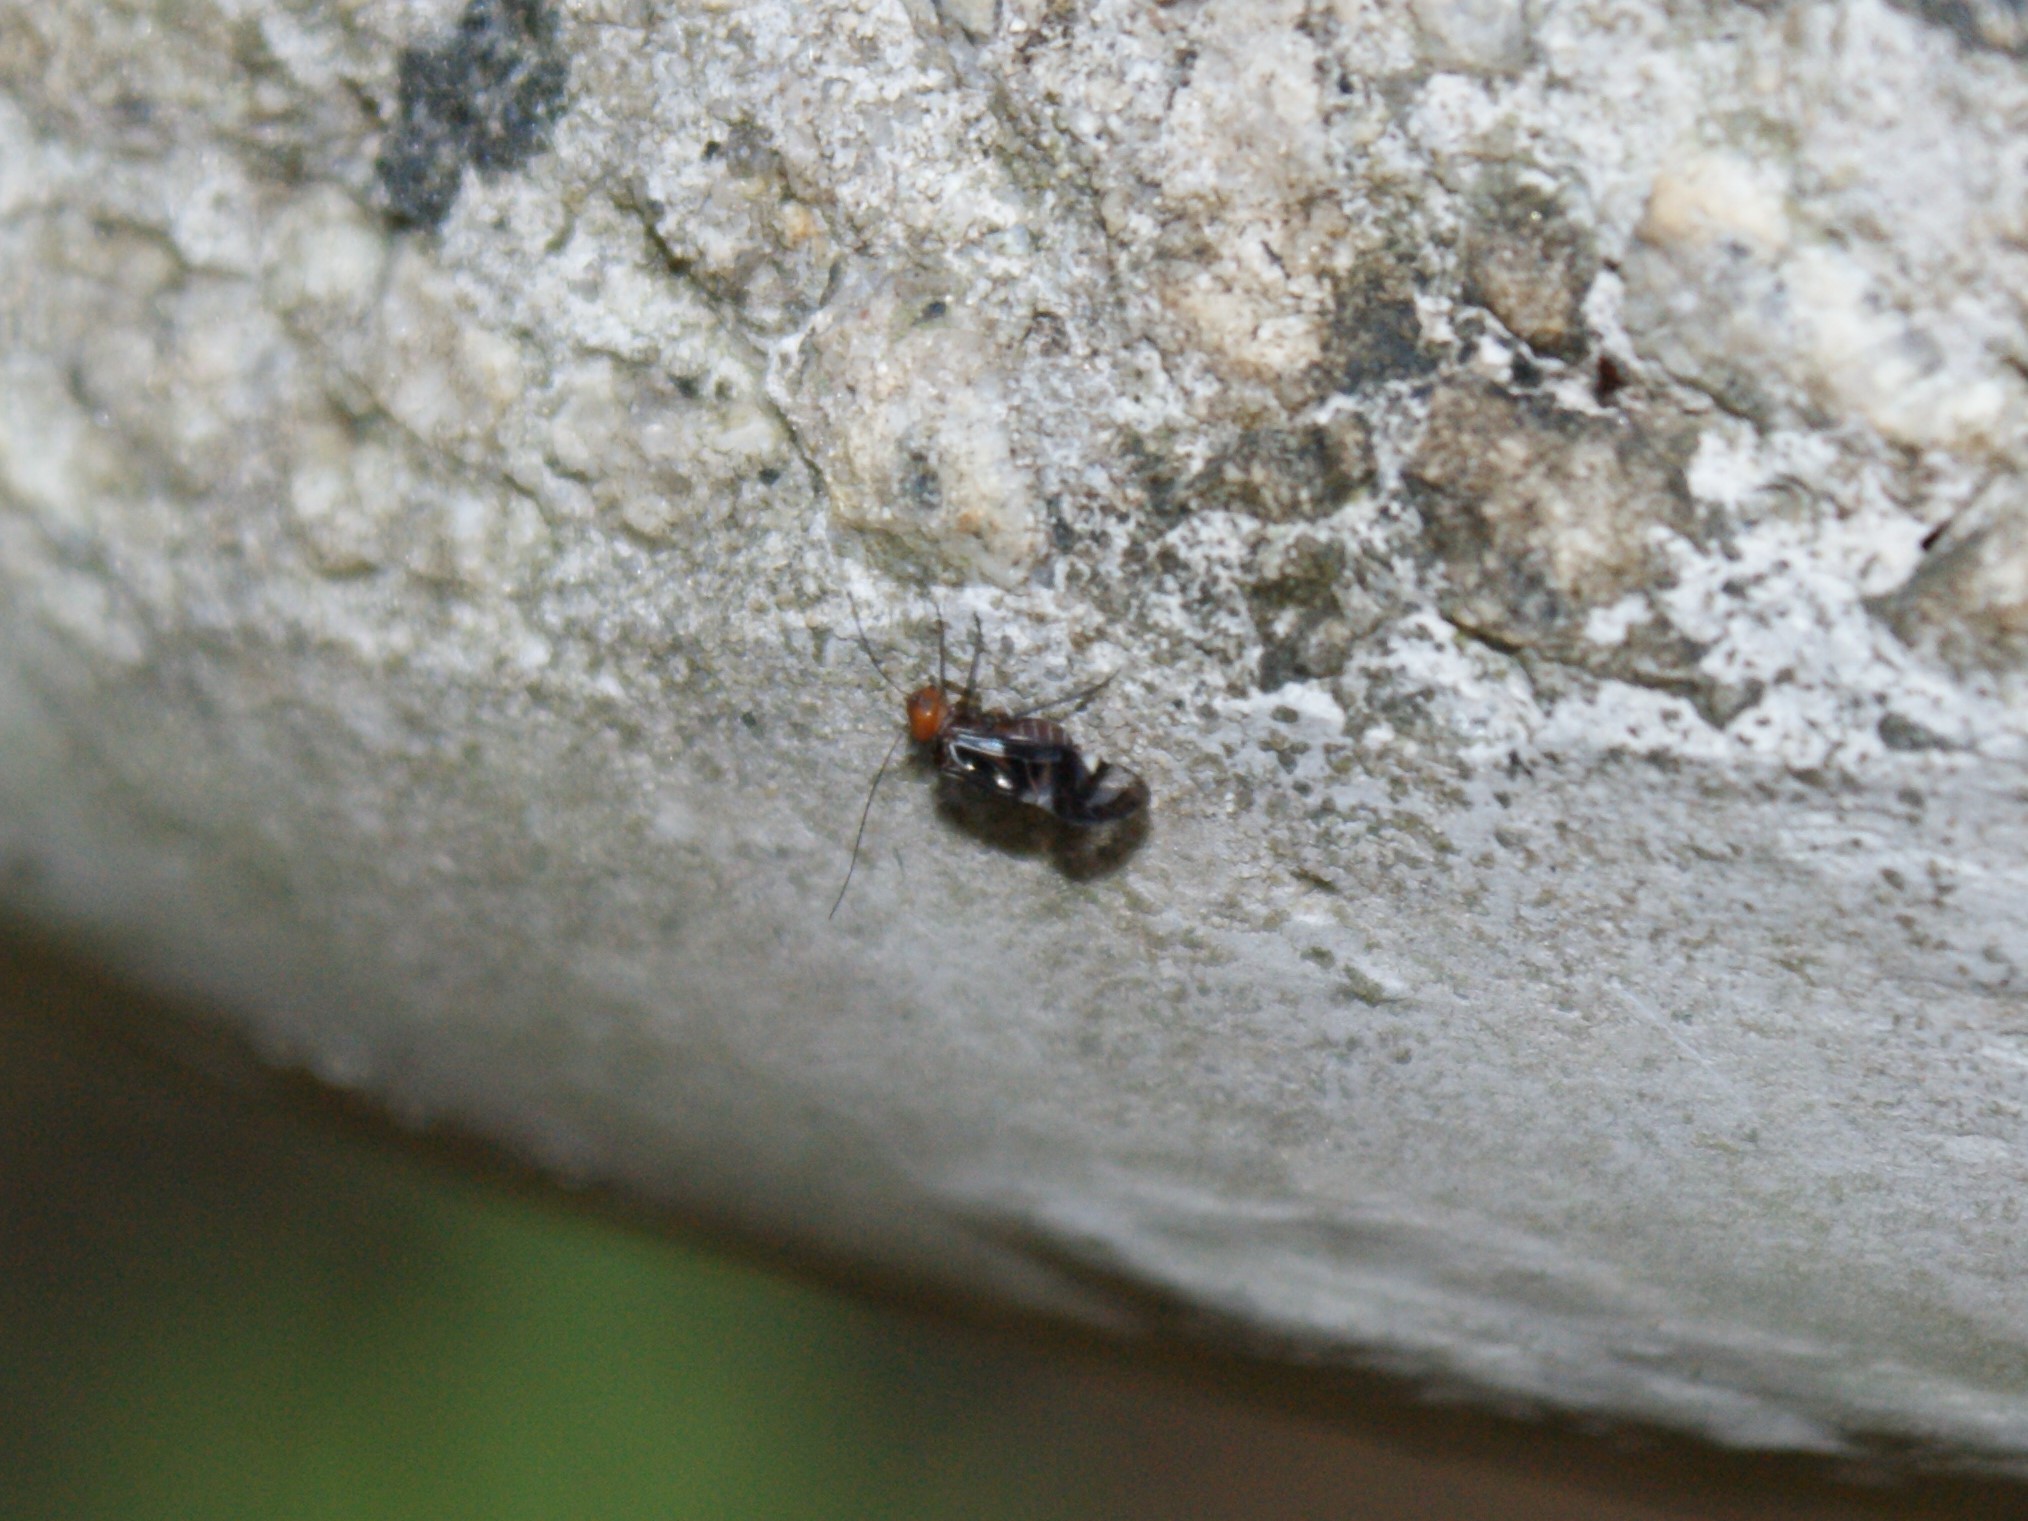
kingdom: Animalia
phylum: Arthropoda
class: Insecta
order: Psocodea
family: Psocidae
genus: Cerastipsocus
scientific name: Cerastipsocus trifasciatus
